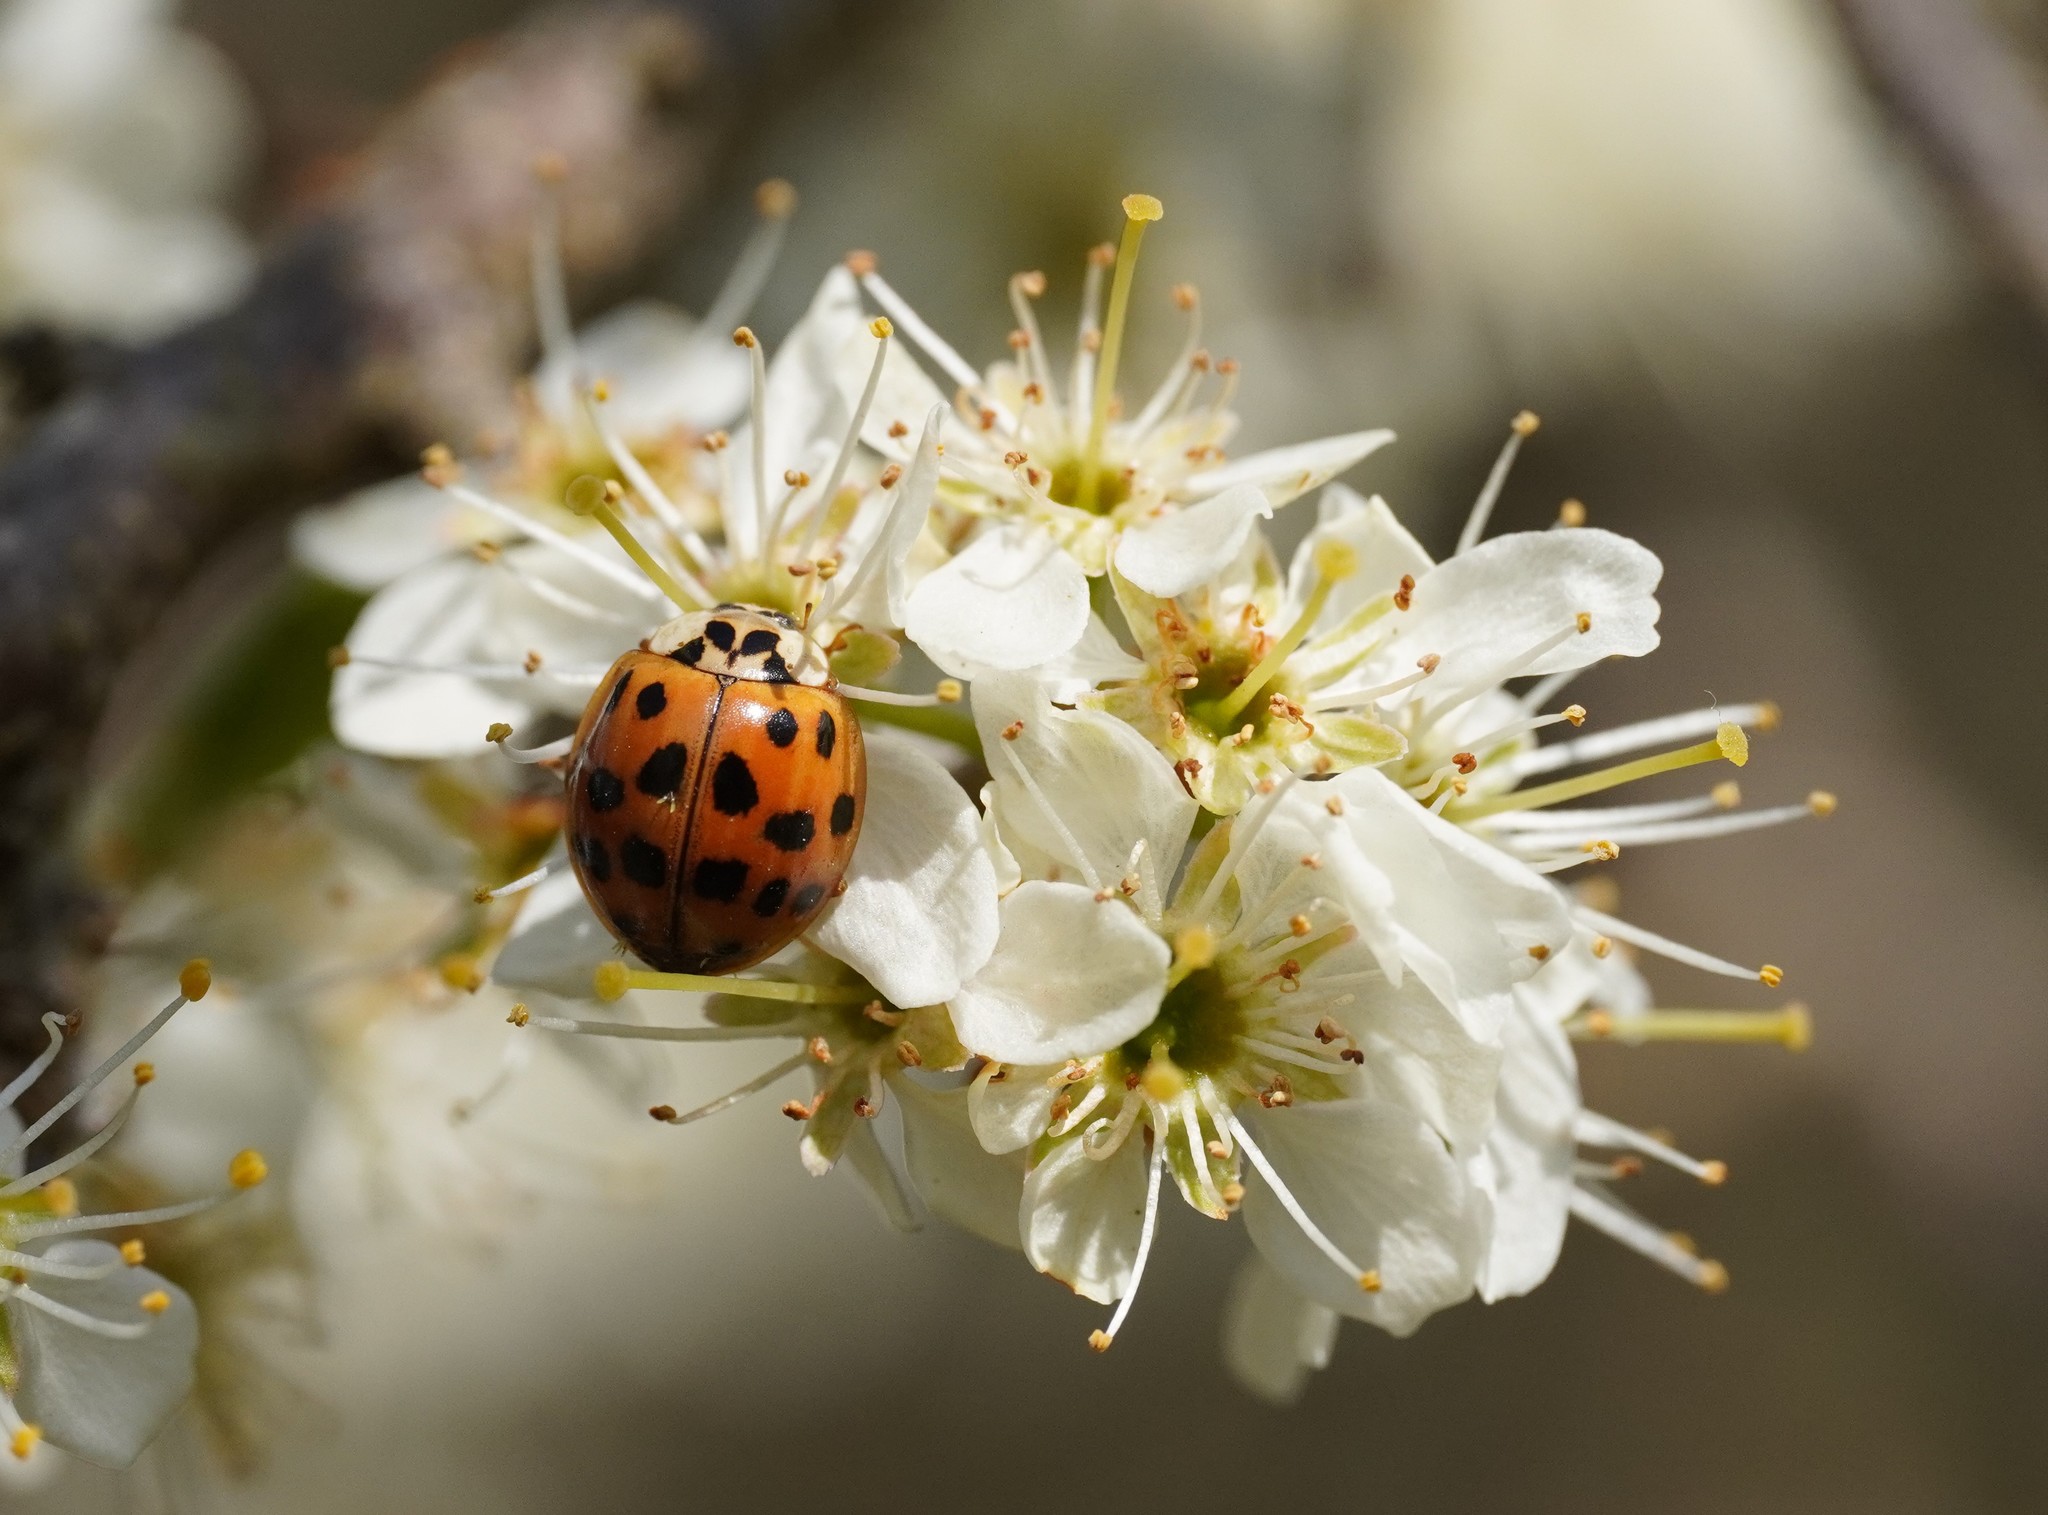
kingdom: Animalia
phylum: Arthropoda
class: Insecta
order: Coleoptera
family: Coccinellidae
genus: Harmonia
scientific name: Harmonia axyridis
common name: Harlequin ladybird
